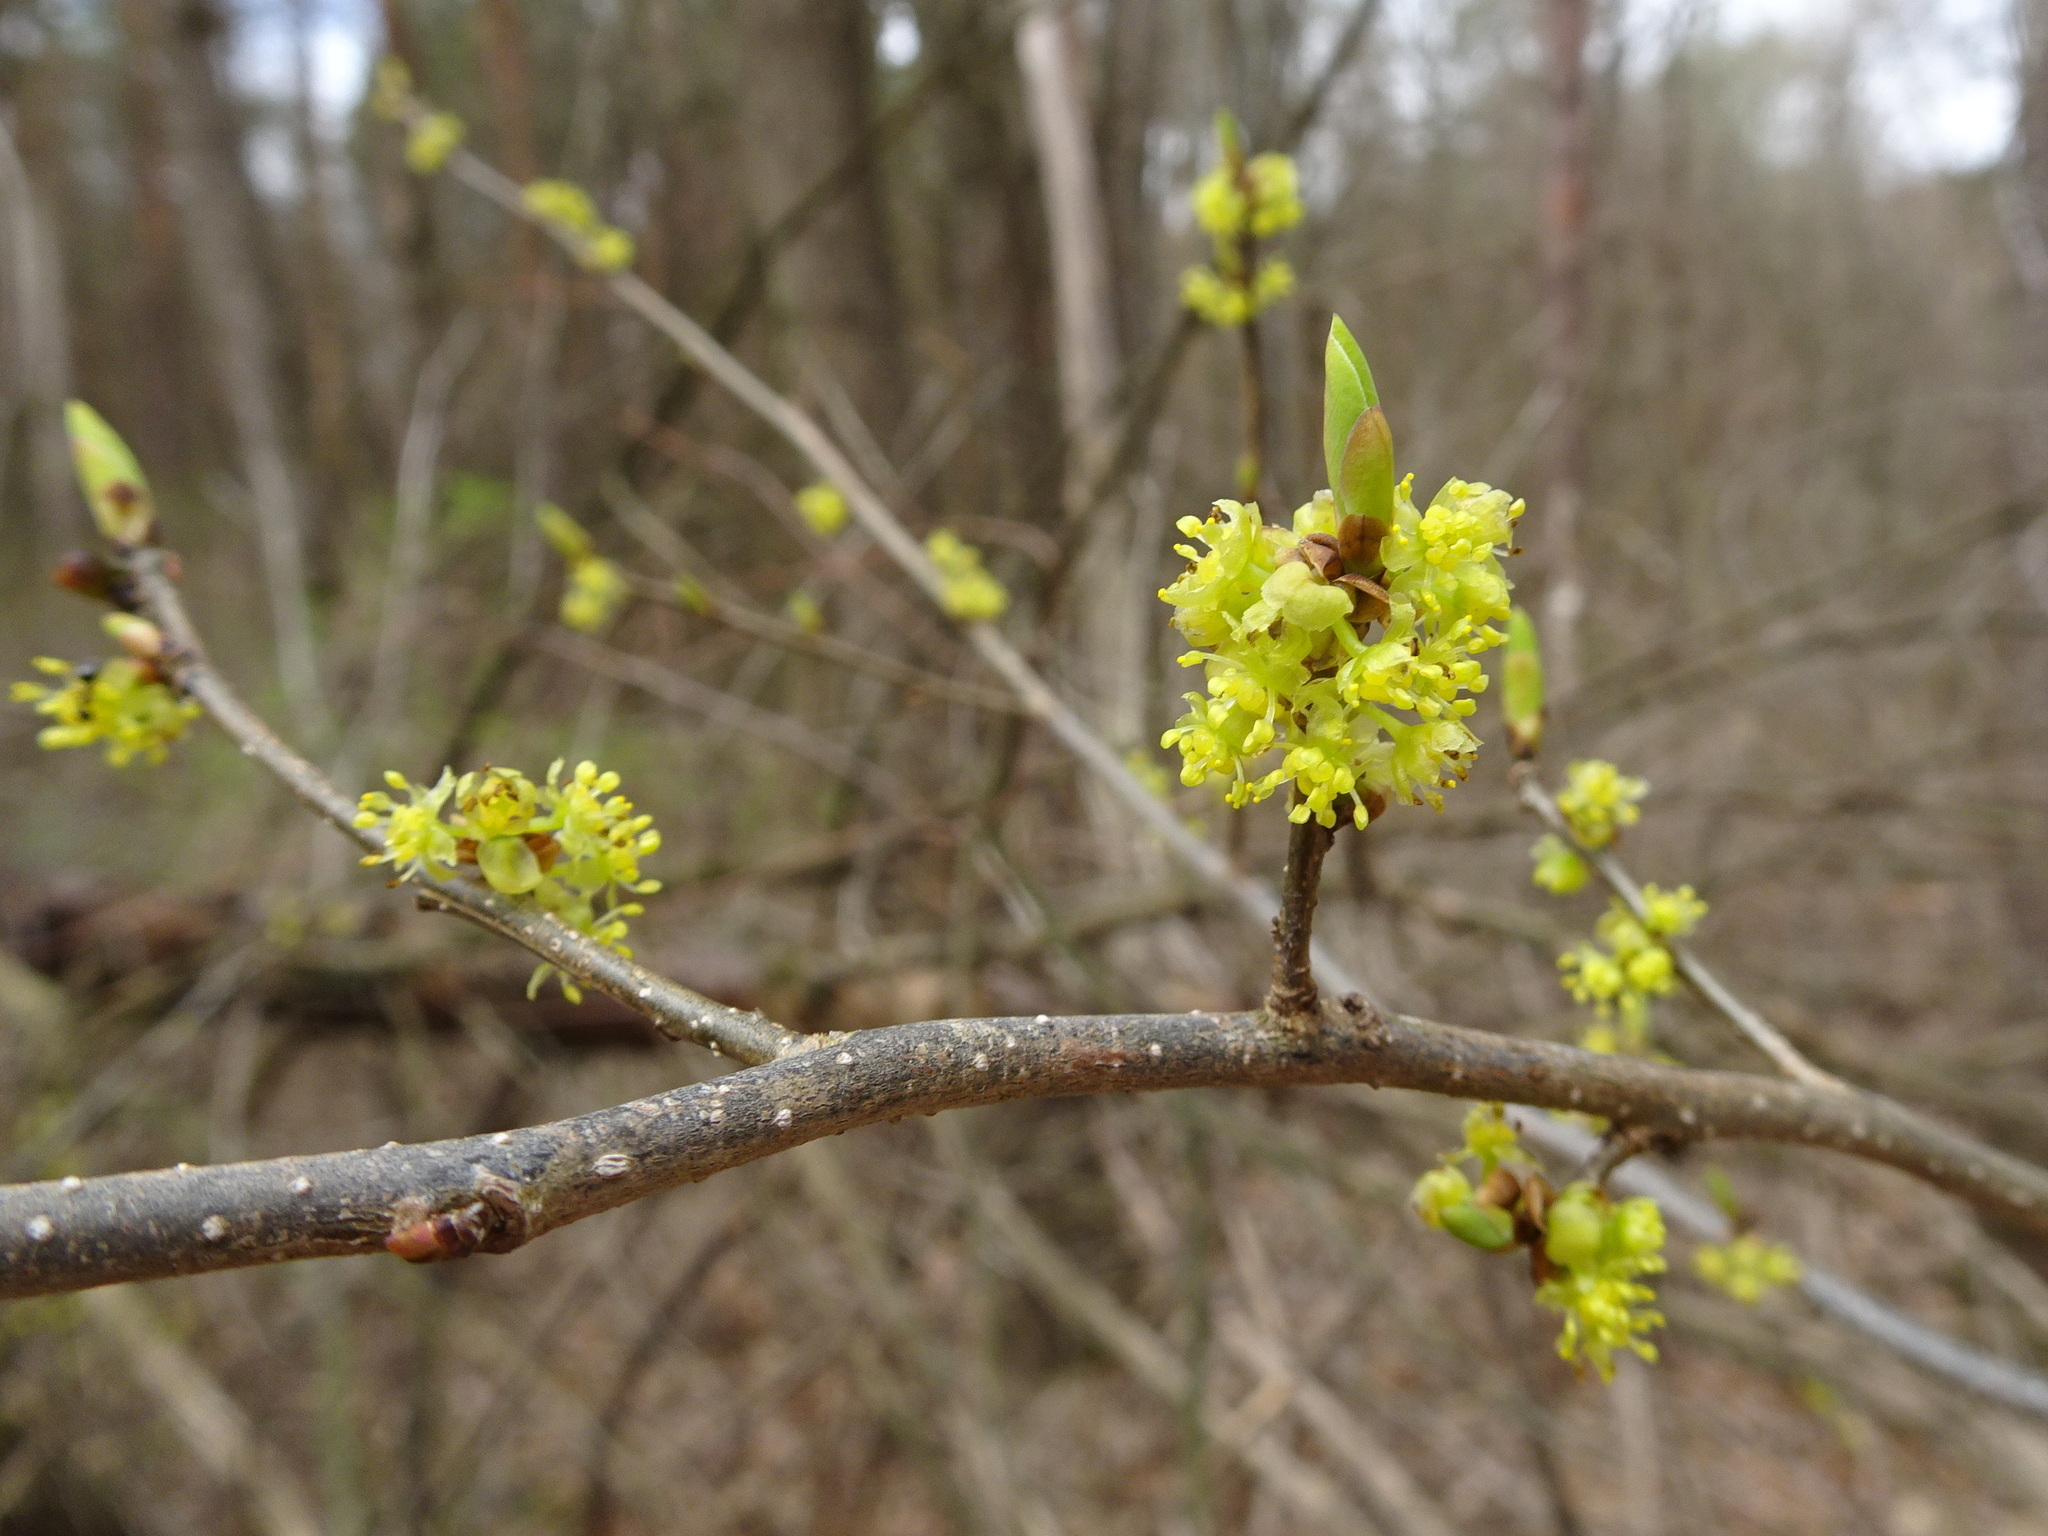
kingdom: Plantae
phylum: Tracheophyta
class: Magnoliopsida
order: Laurales
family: Lauraceae
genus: Lindera
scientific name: Lindera benzoin
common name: Spicebush
